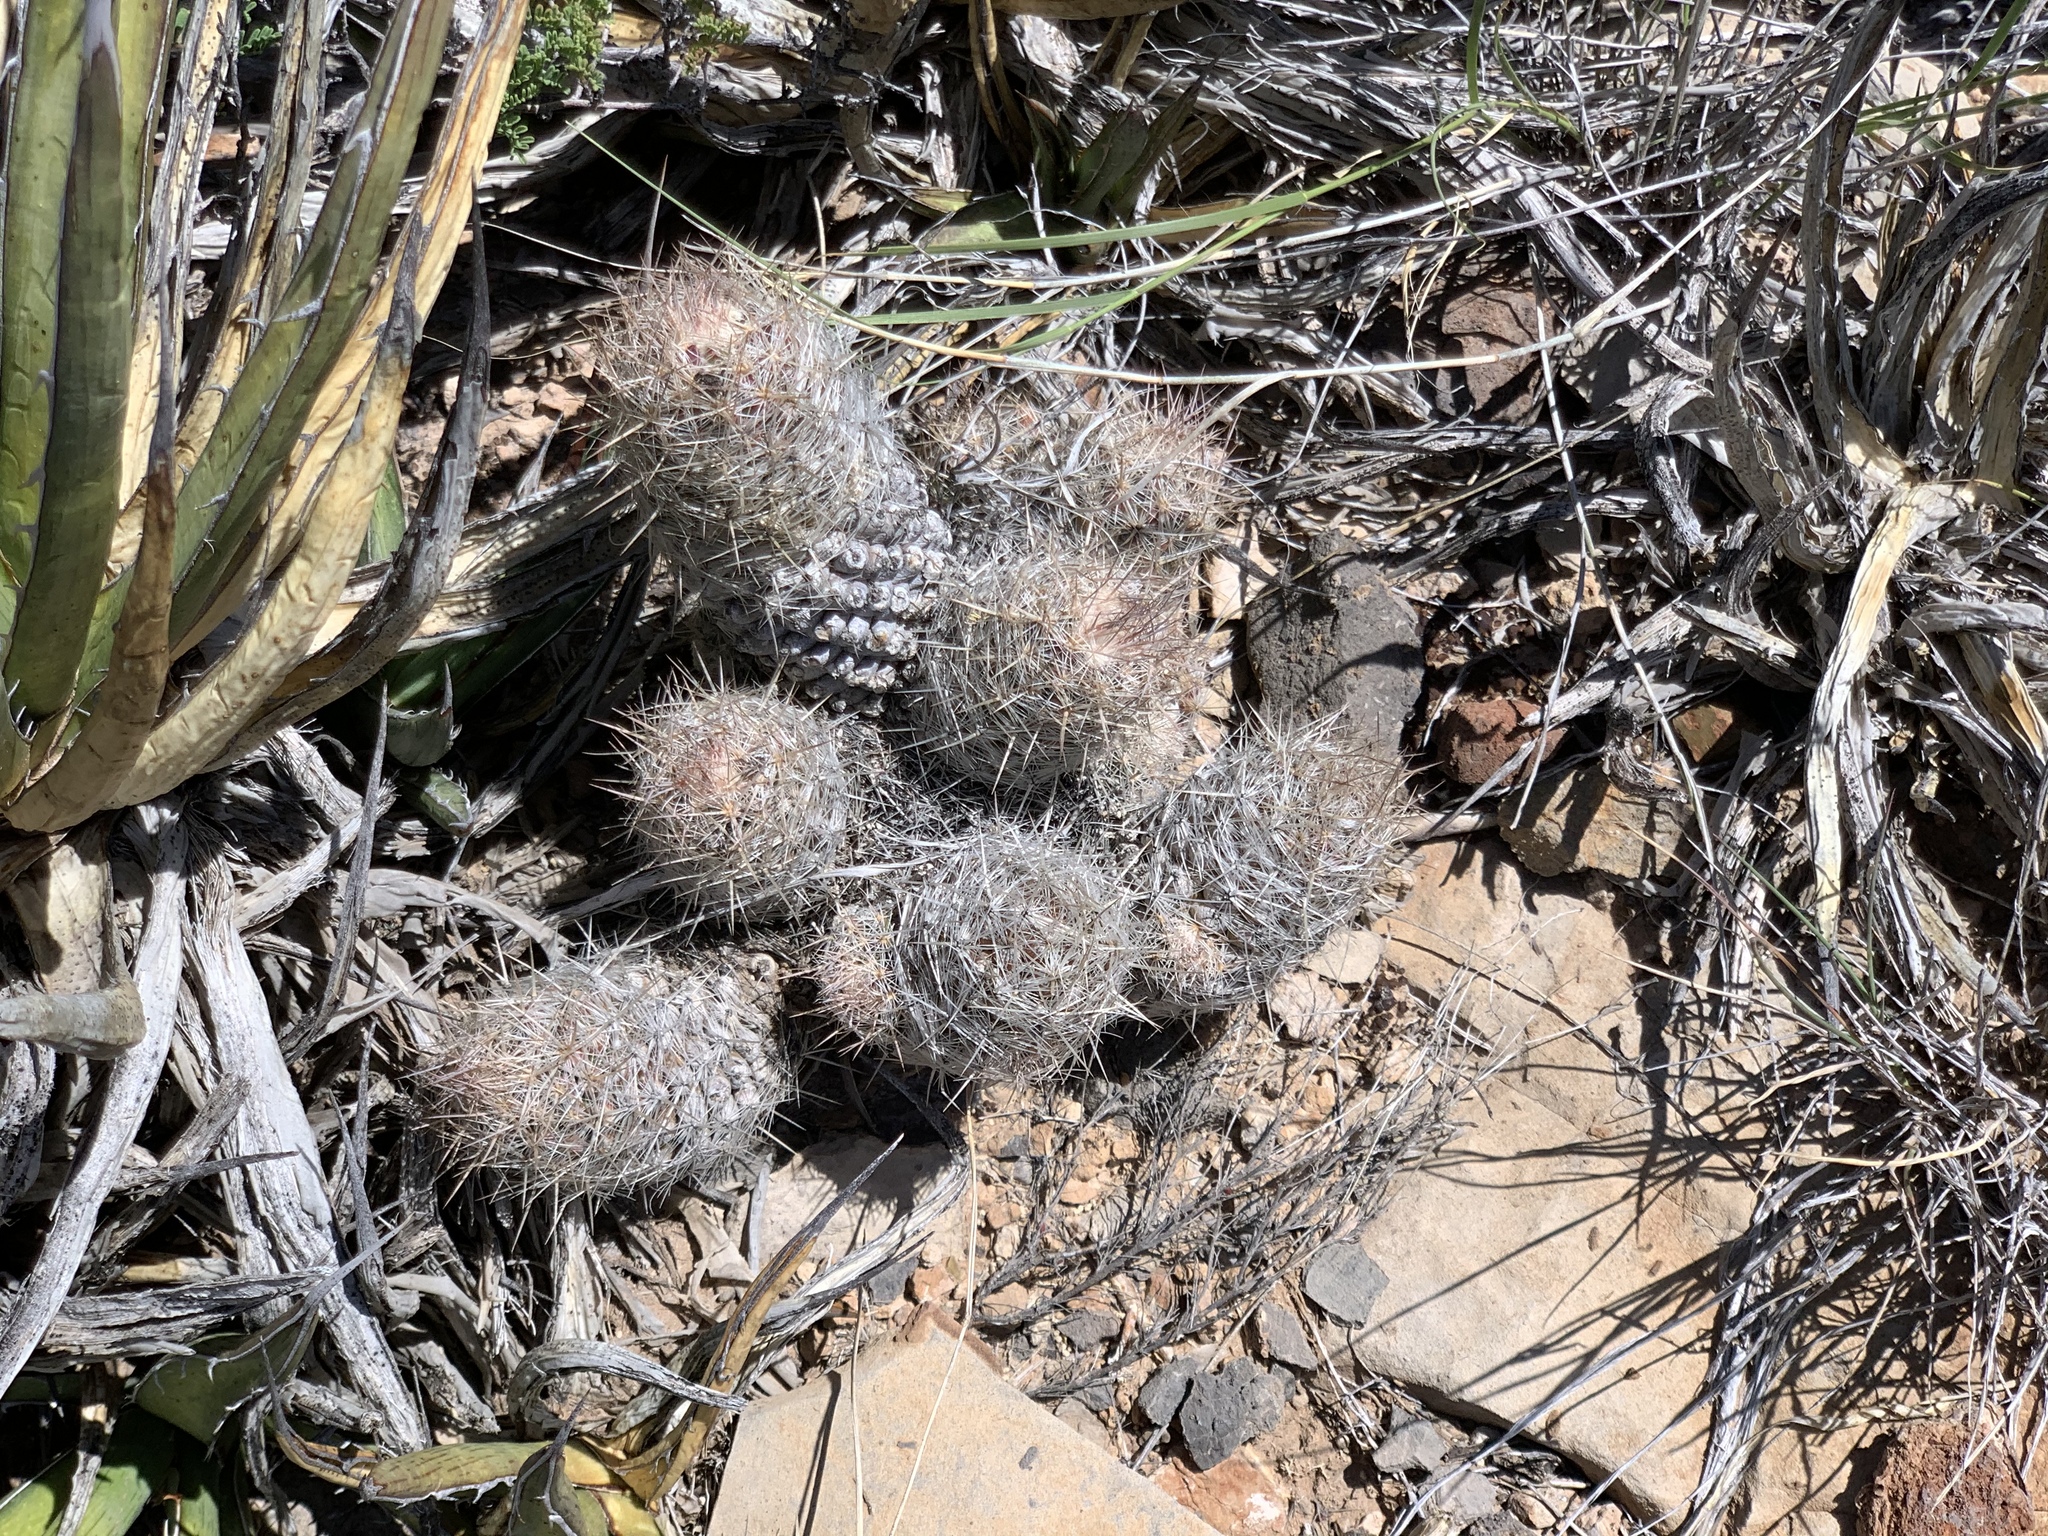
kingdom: Plantae
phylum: Tracheophyta
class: Magnoliopsida
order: Caryophyllales
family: Cactaceae
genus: Pelecyphora
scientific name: Pelecyphora tuberculosa
